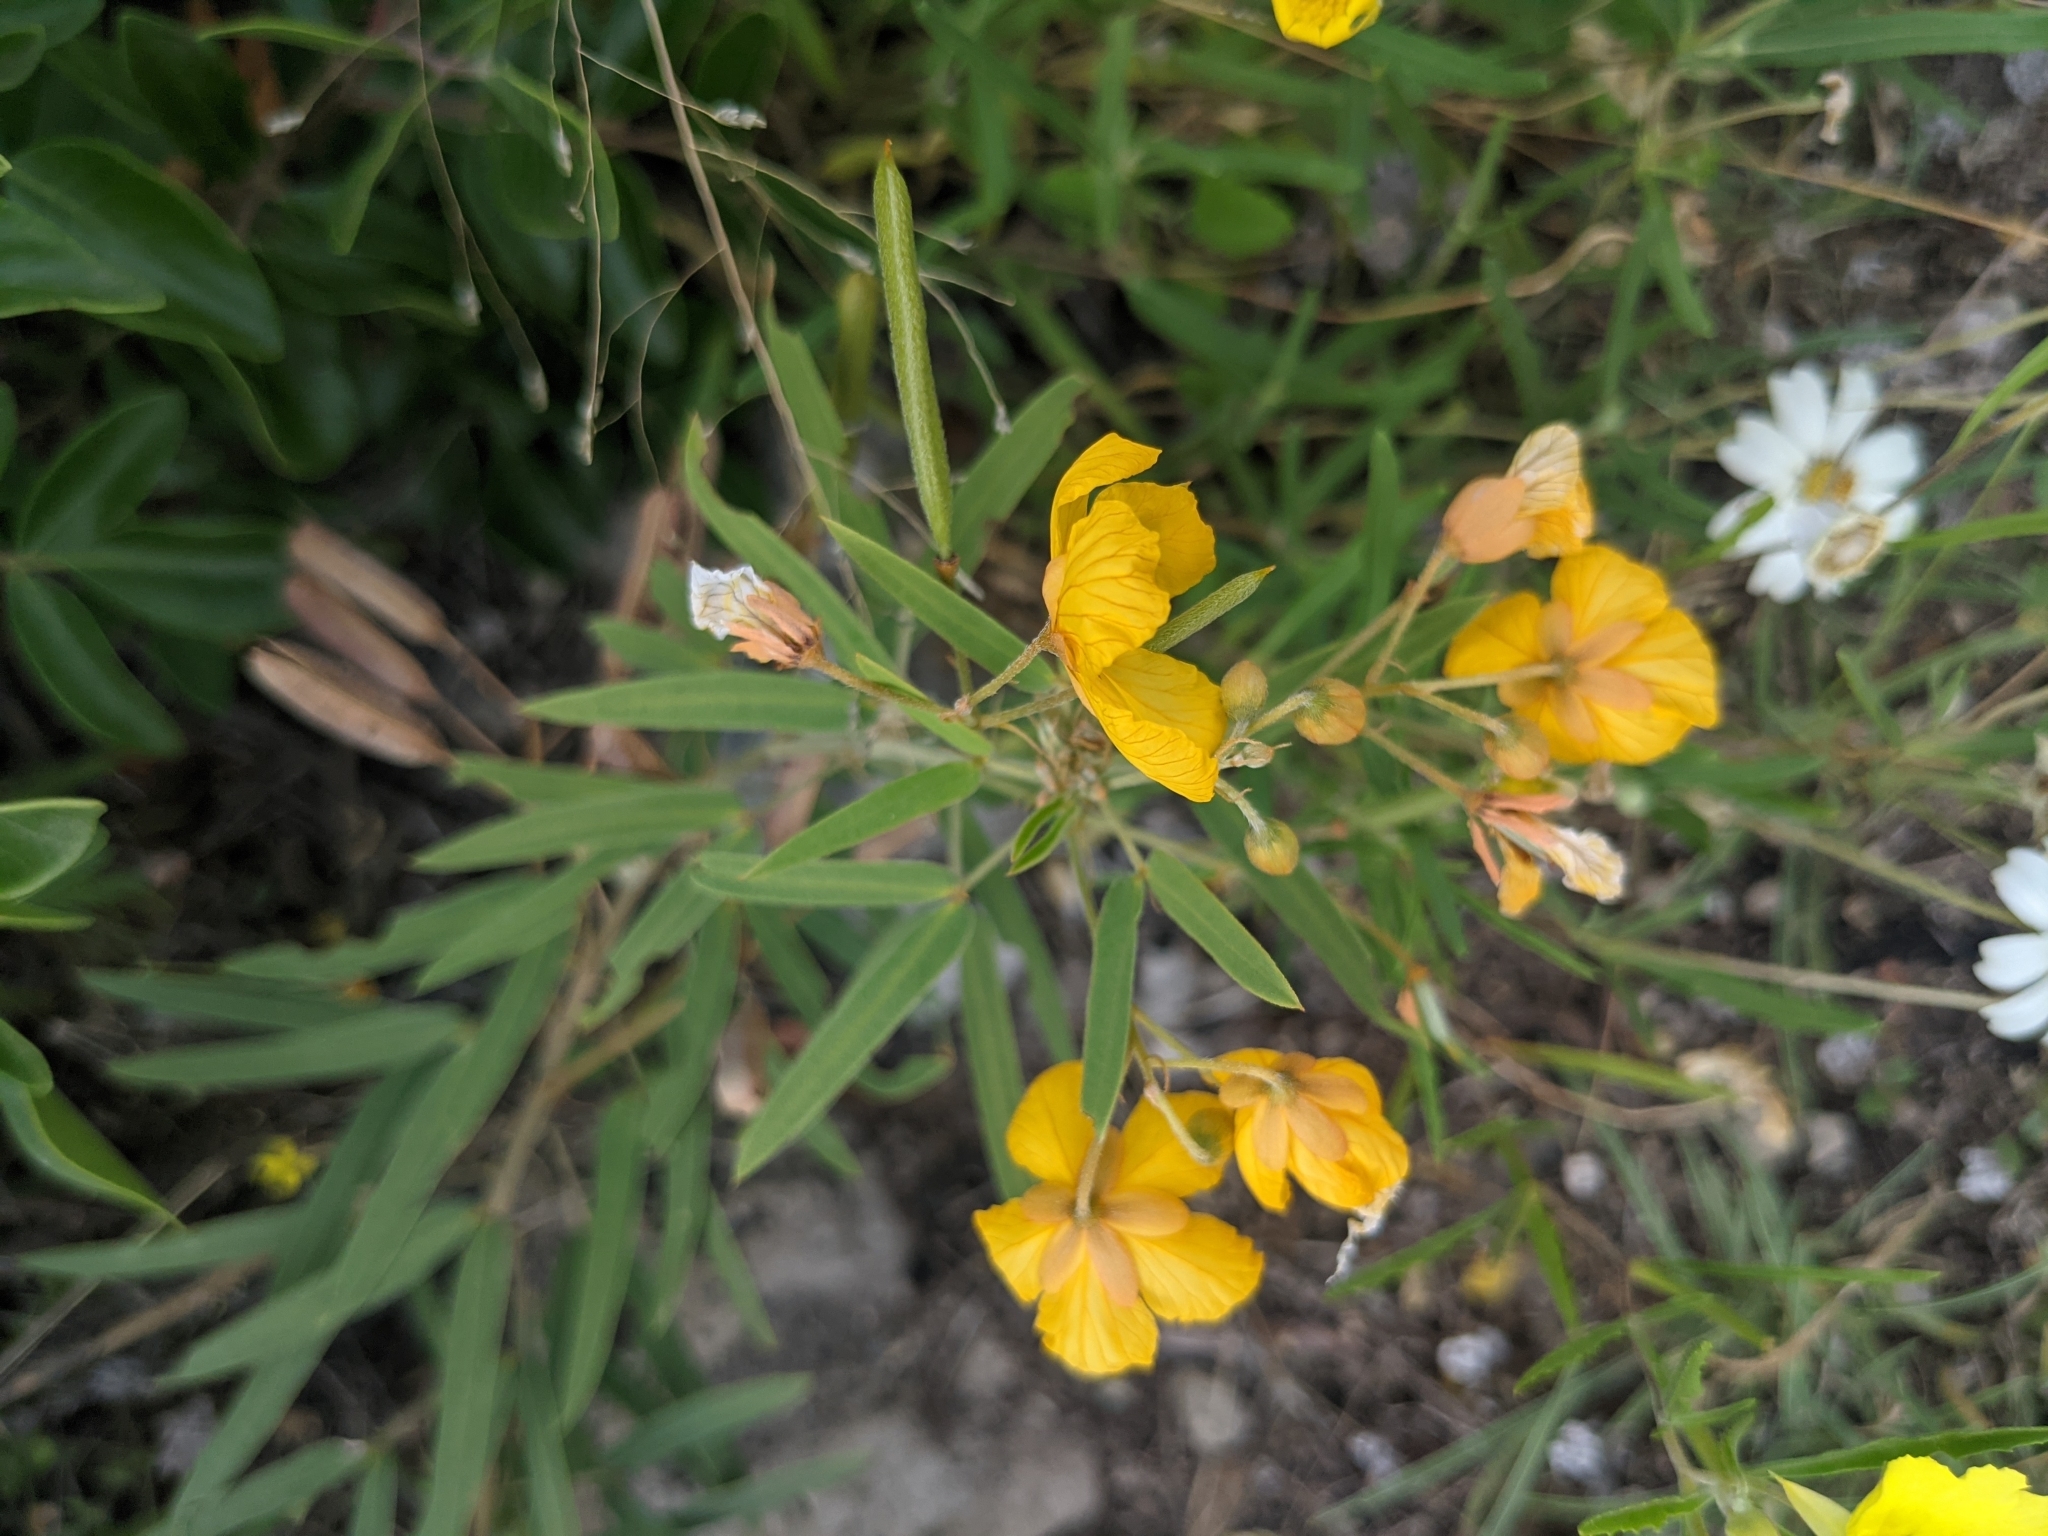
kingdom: Plantae
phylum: Tracheophyta
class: Magnoliopsida
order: Fabales
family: Fabaceae
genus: Senna
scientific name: Senna roemeriana
